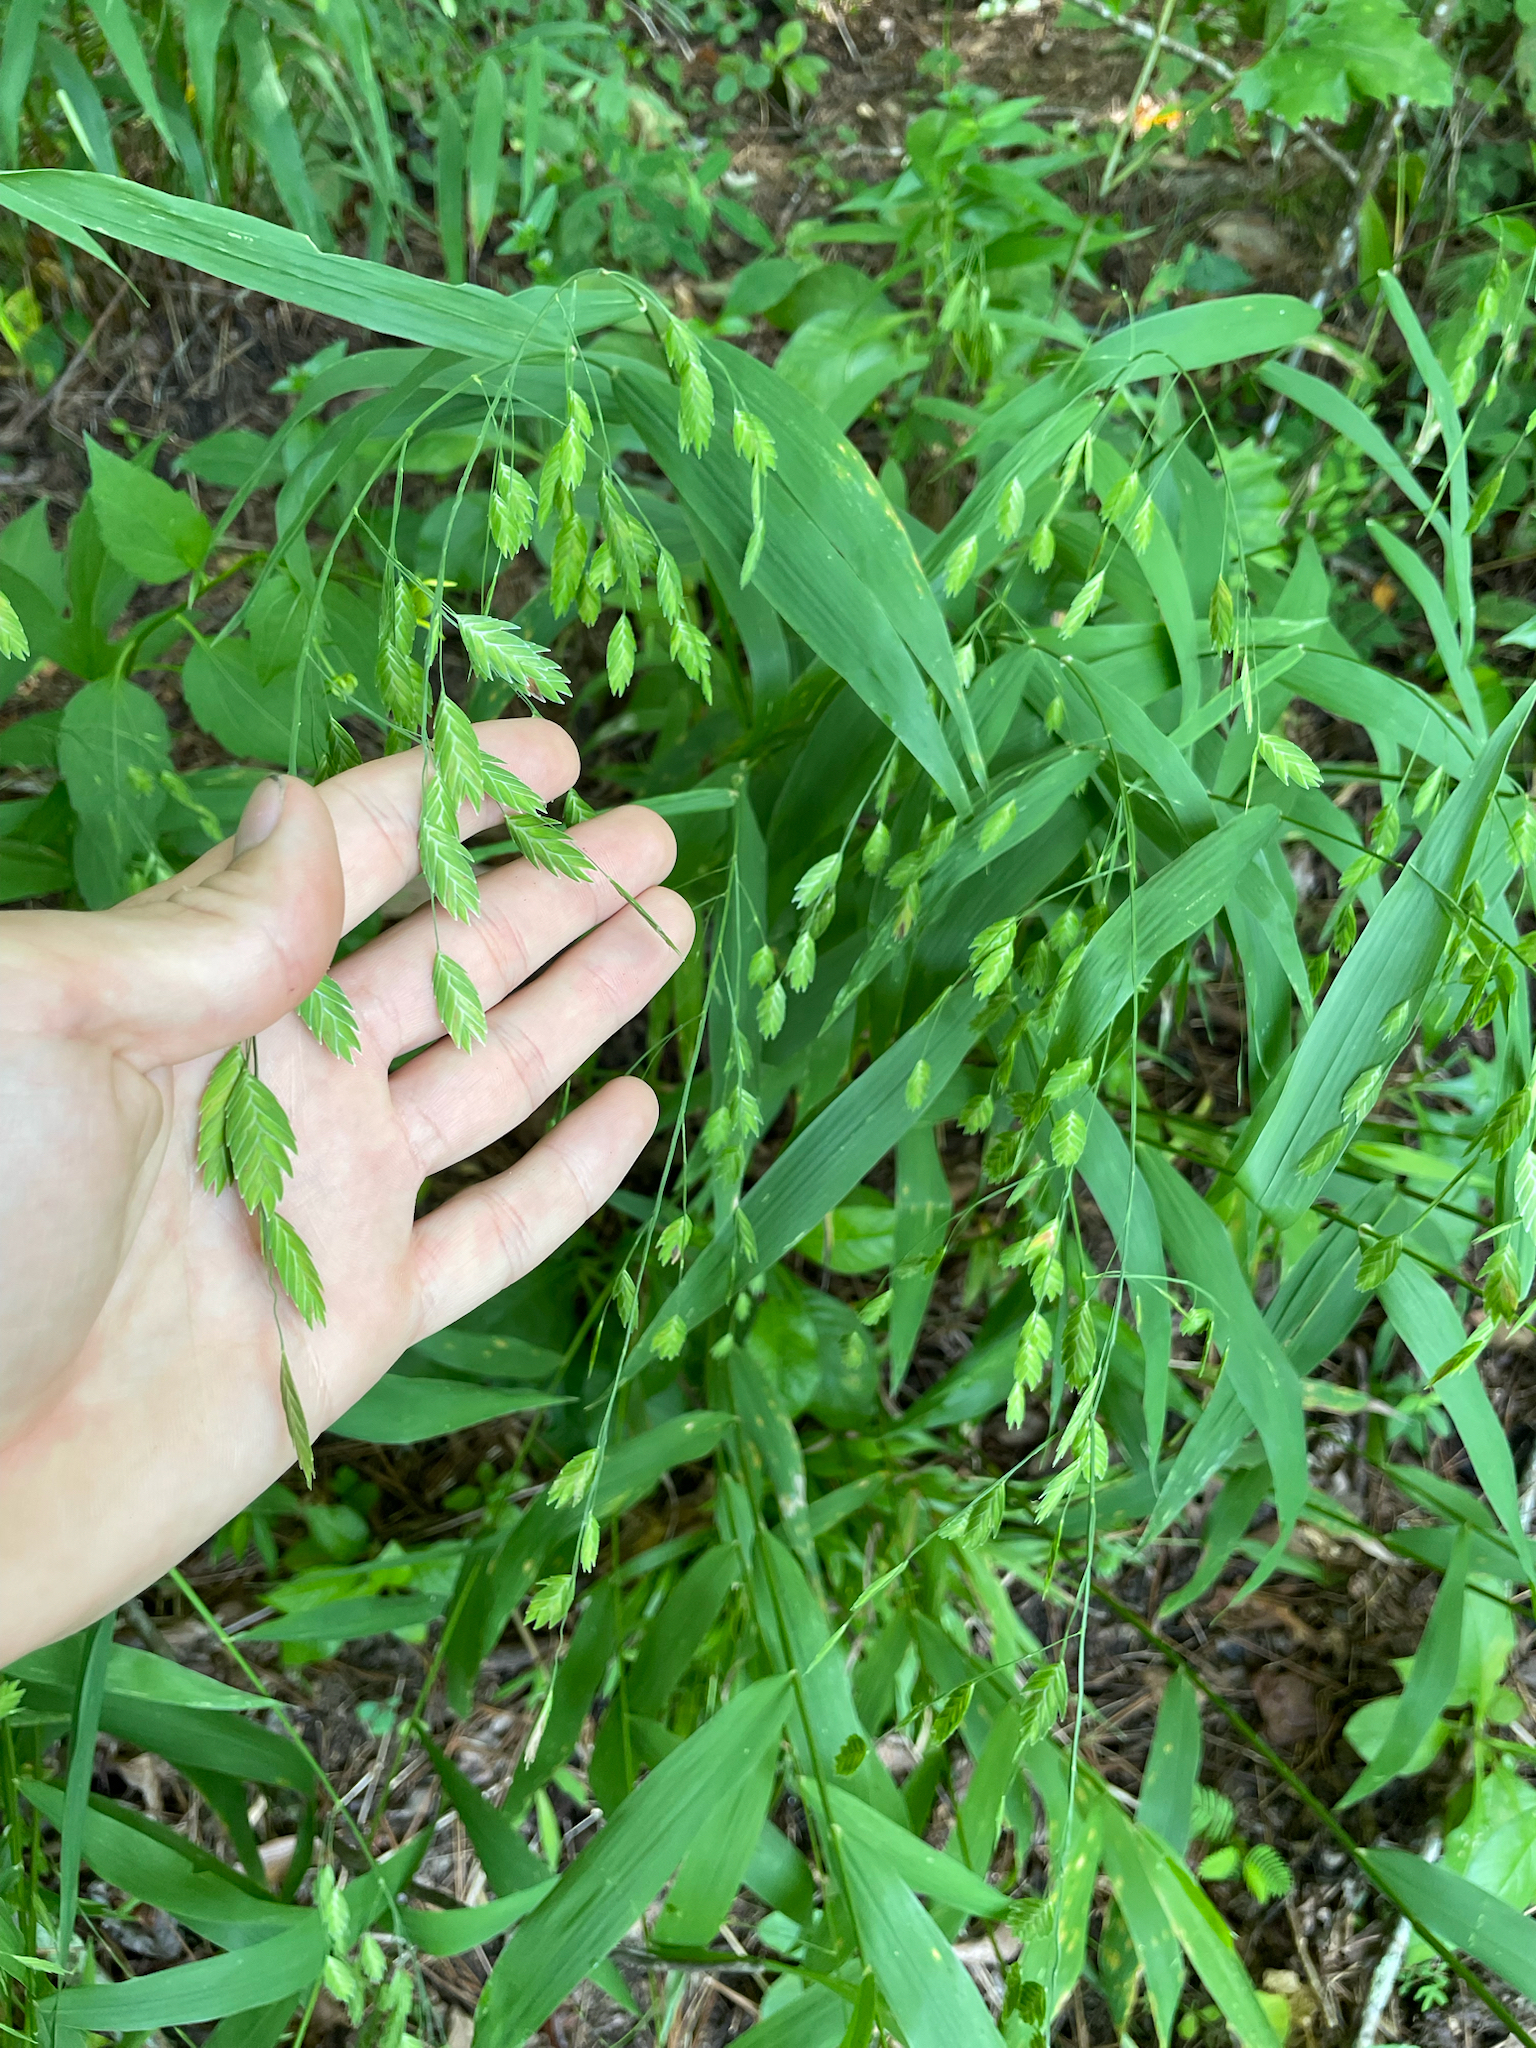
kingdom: Plantae
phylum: Tracheophyta
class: Liliopsida
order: Poales
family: Poaceae
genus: Chasmanthium
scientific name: Chasmanthium latifolium
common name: Broad-leaved chasmanthium
